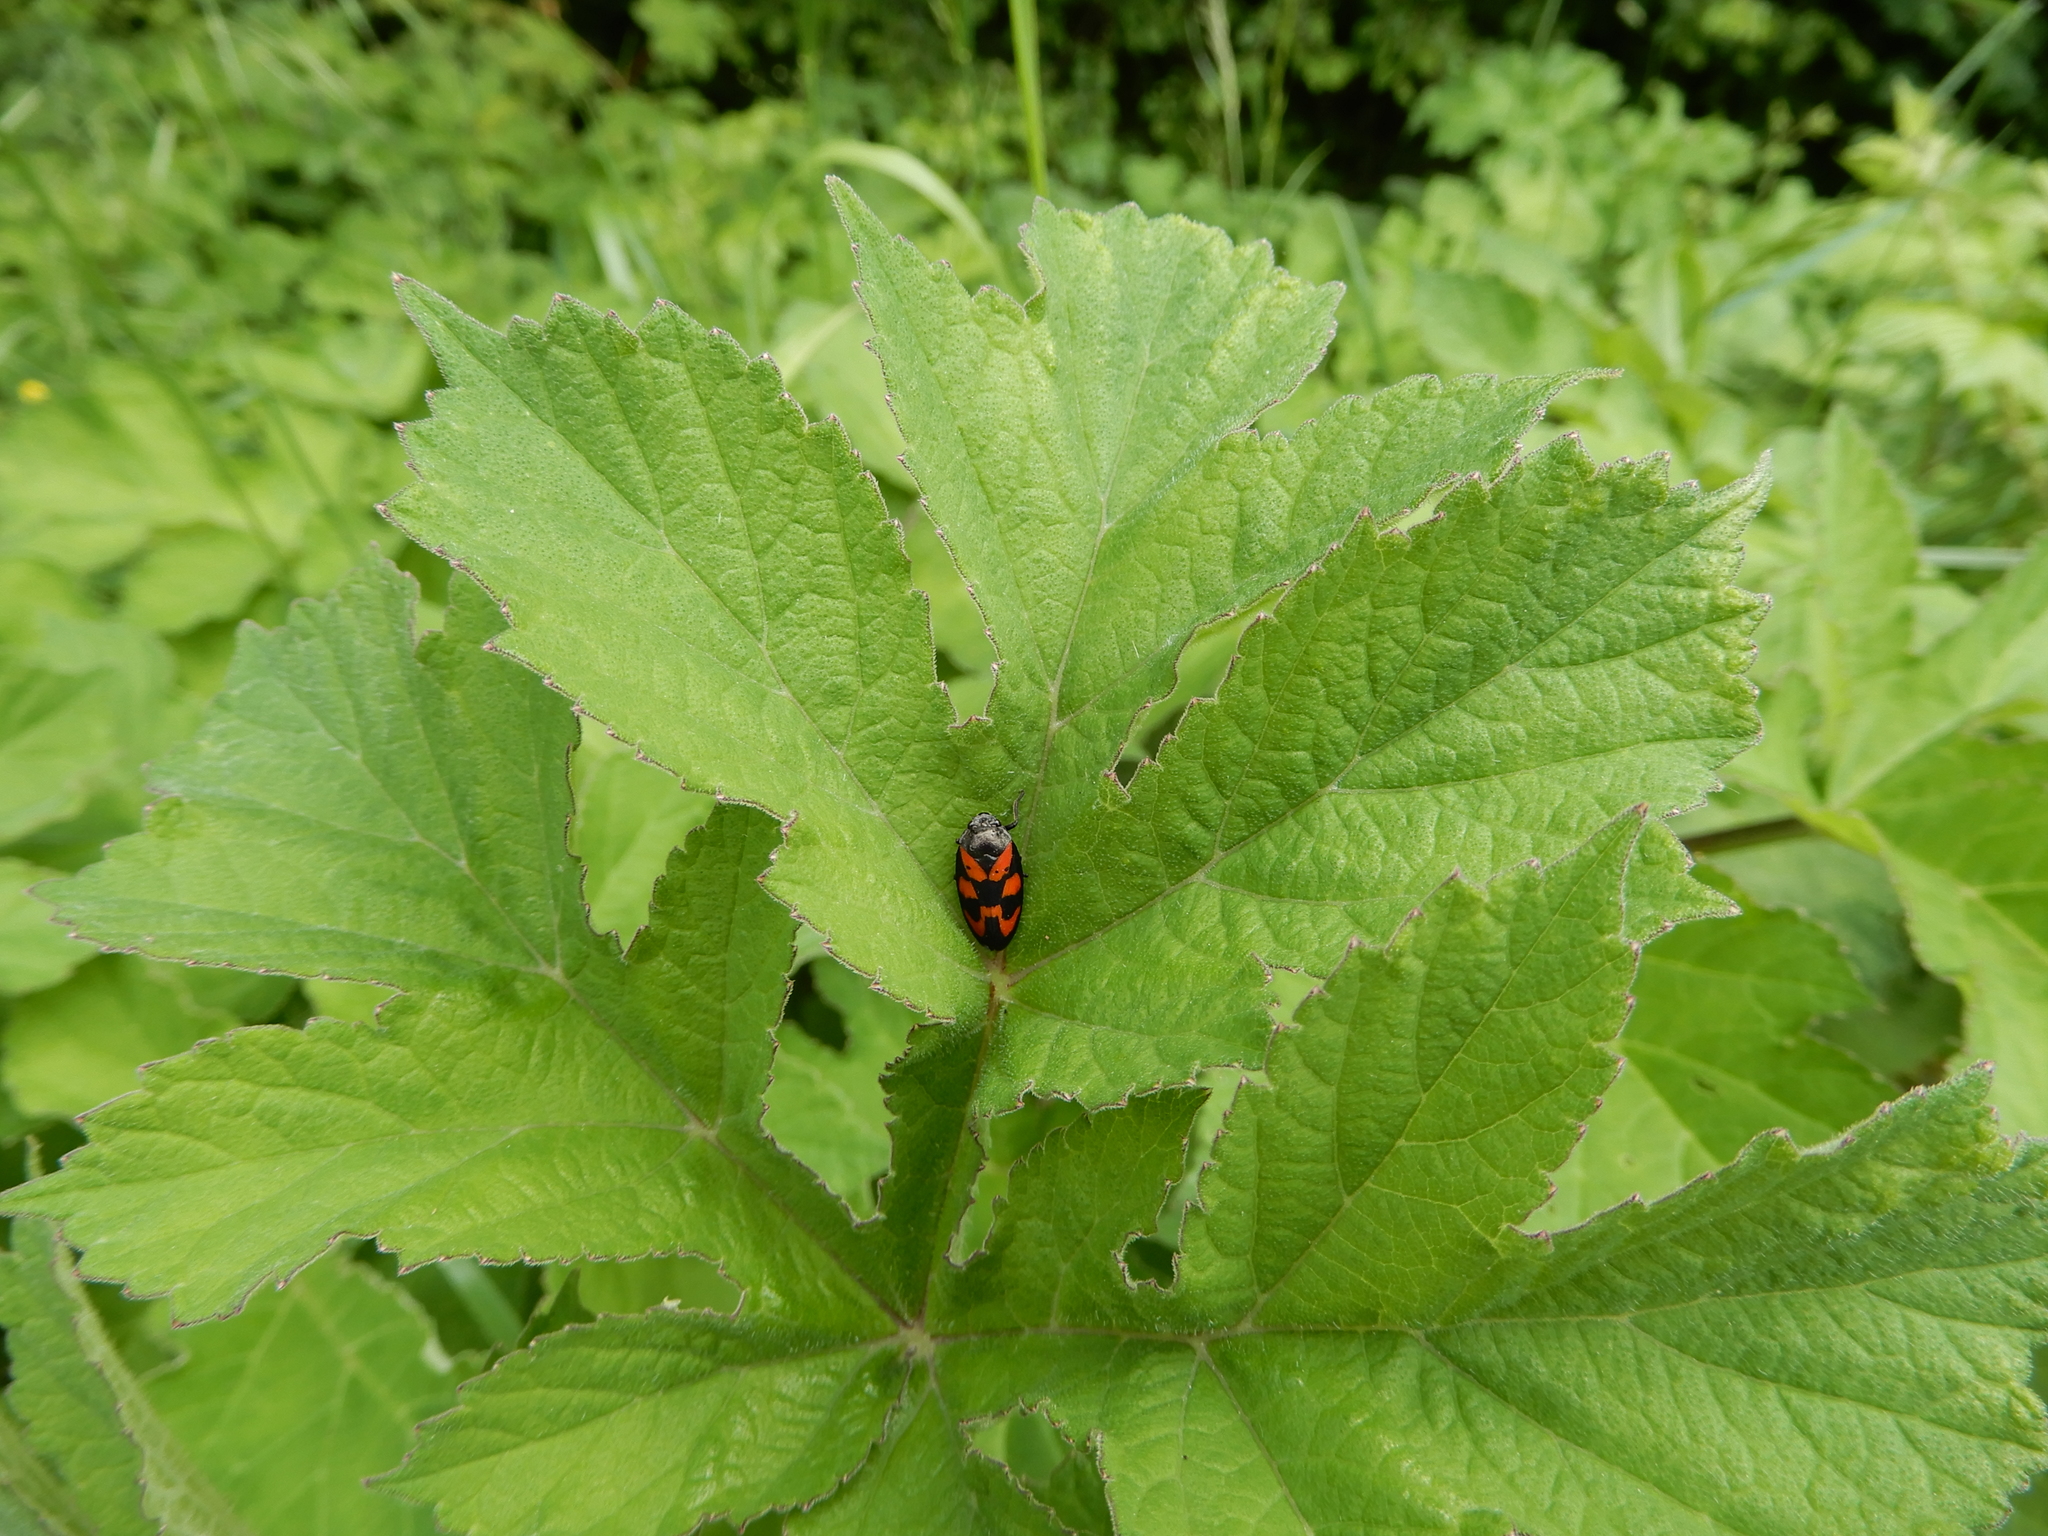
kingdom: Animalia
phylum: Arthropoda
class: Insecta
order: Hemiptera
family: Cercopidae
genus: Cercopis
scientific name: Cercopis vulnerata
